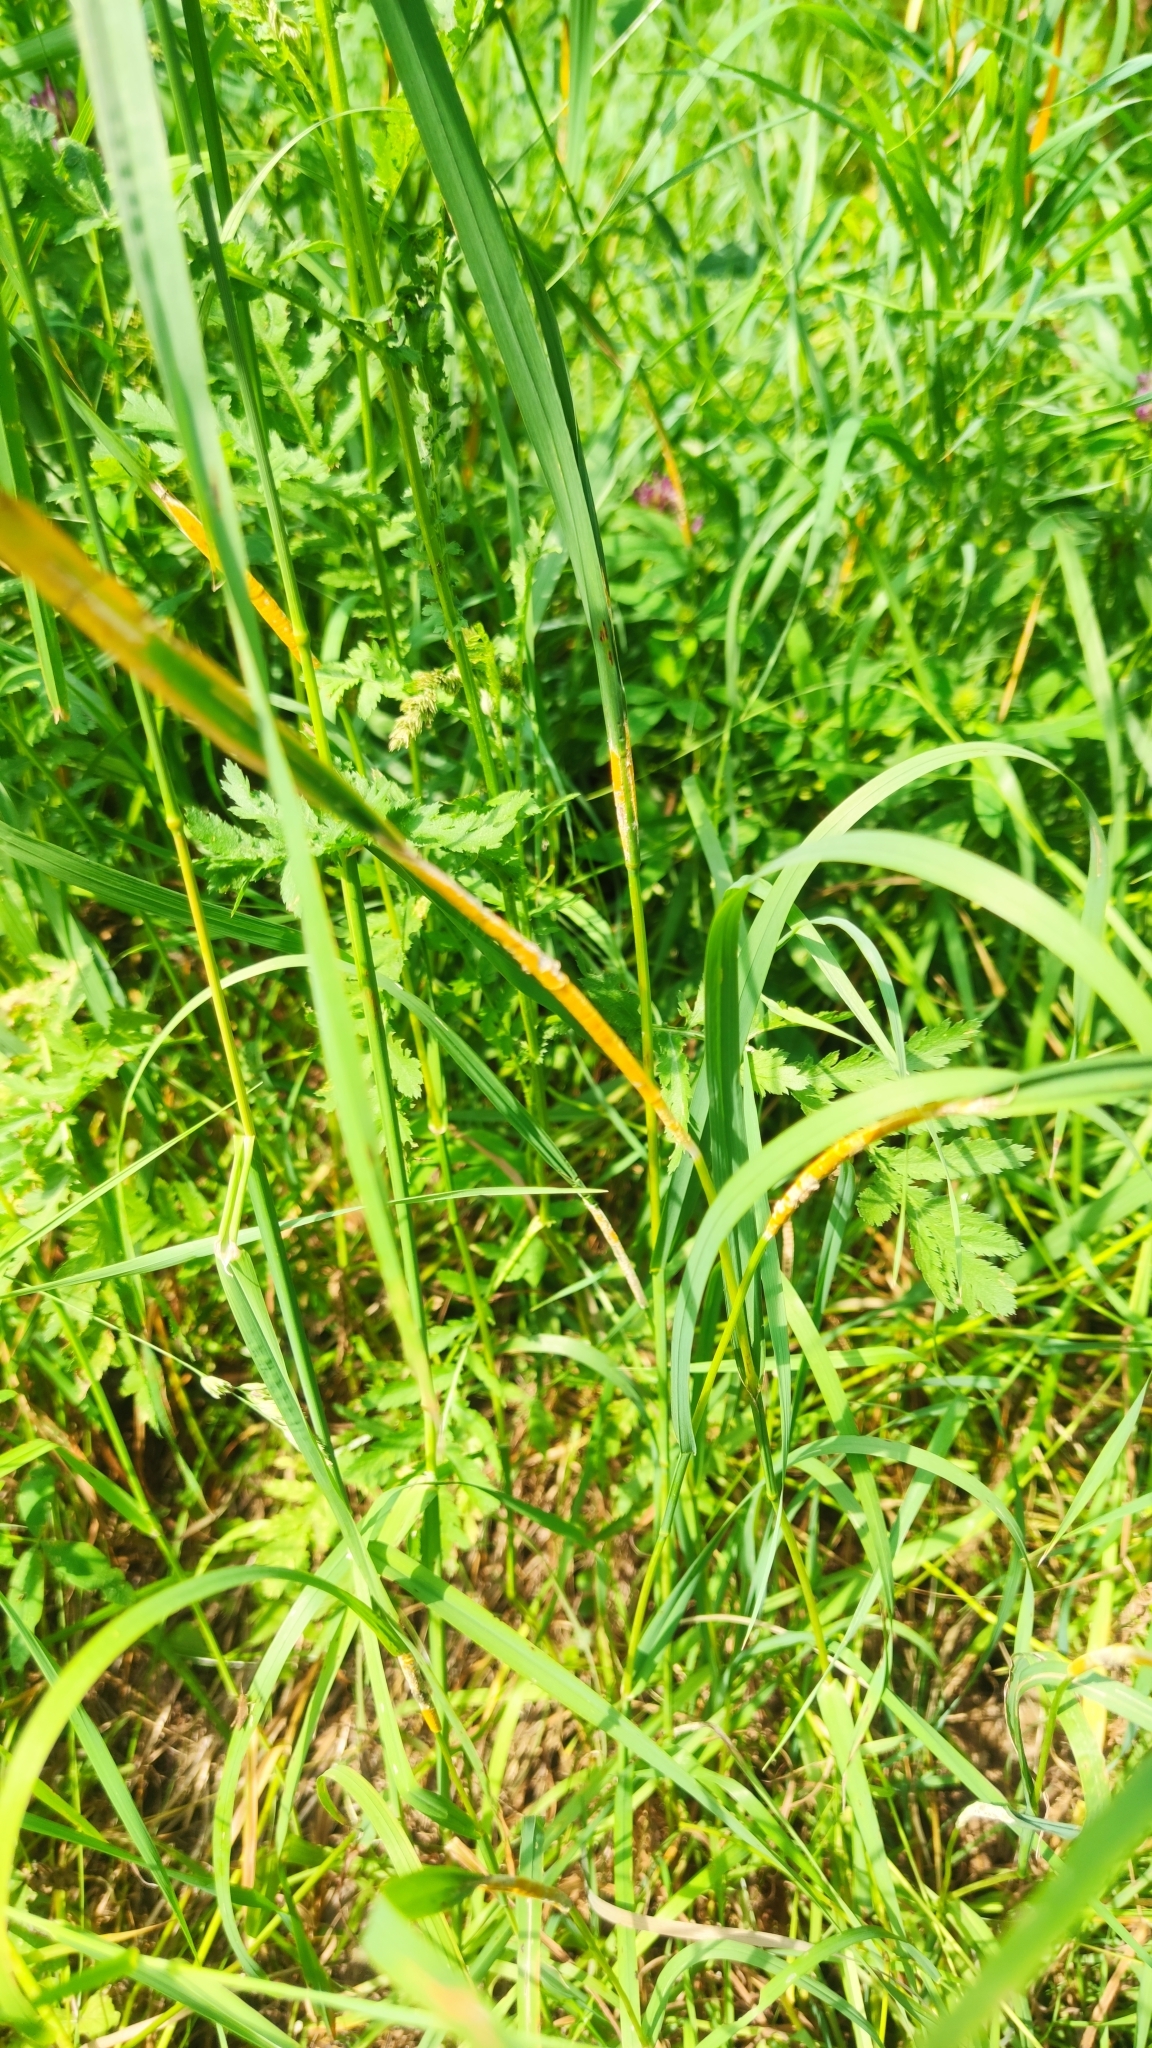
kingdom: Fungi
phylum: Ascomycota
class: Sordariomycetes
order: Hypocreales
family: Clavicipitaceae
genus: Epichloe
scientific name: Epichloe typhina
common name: Choke
